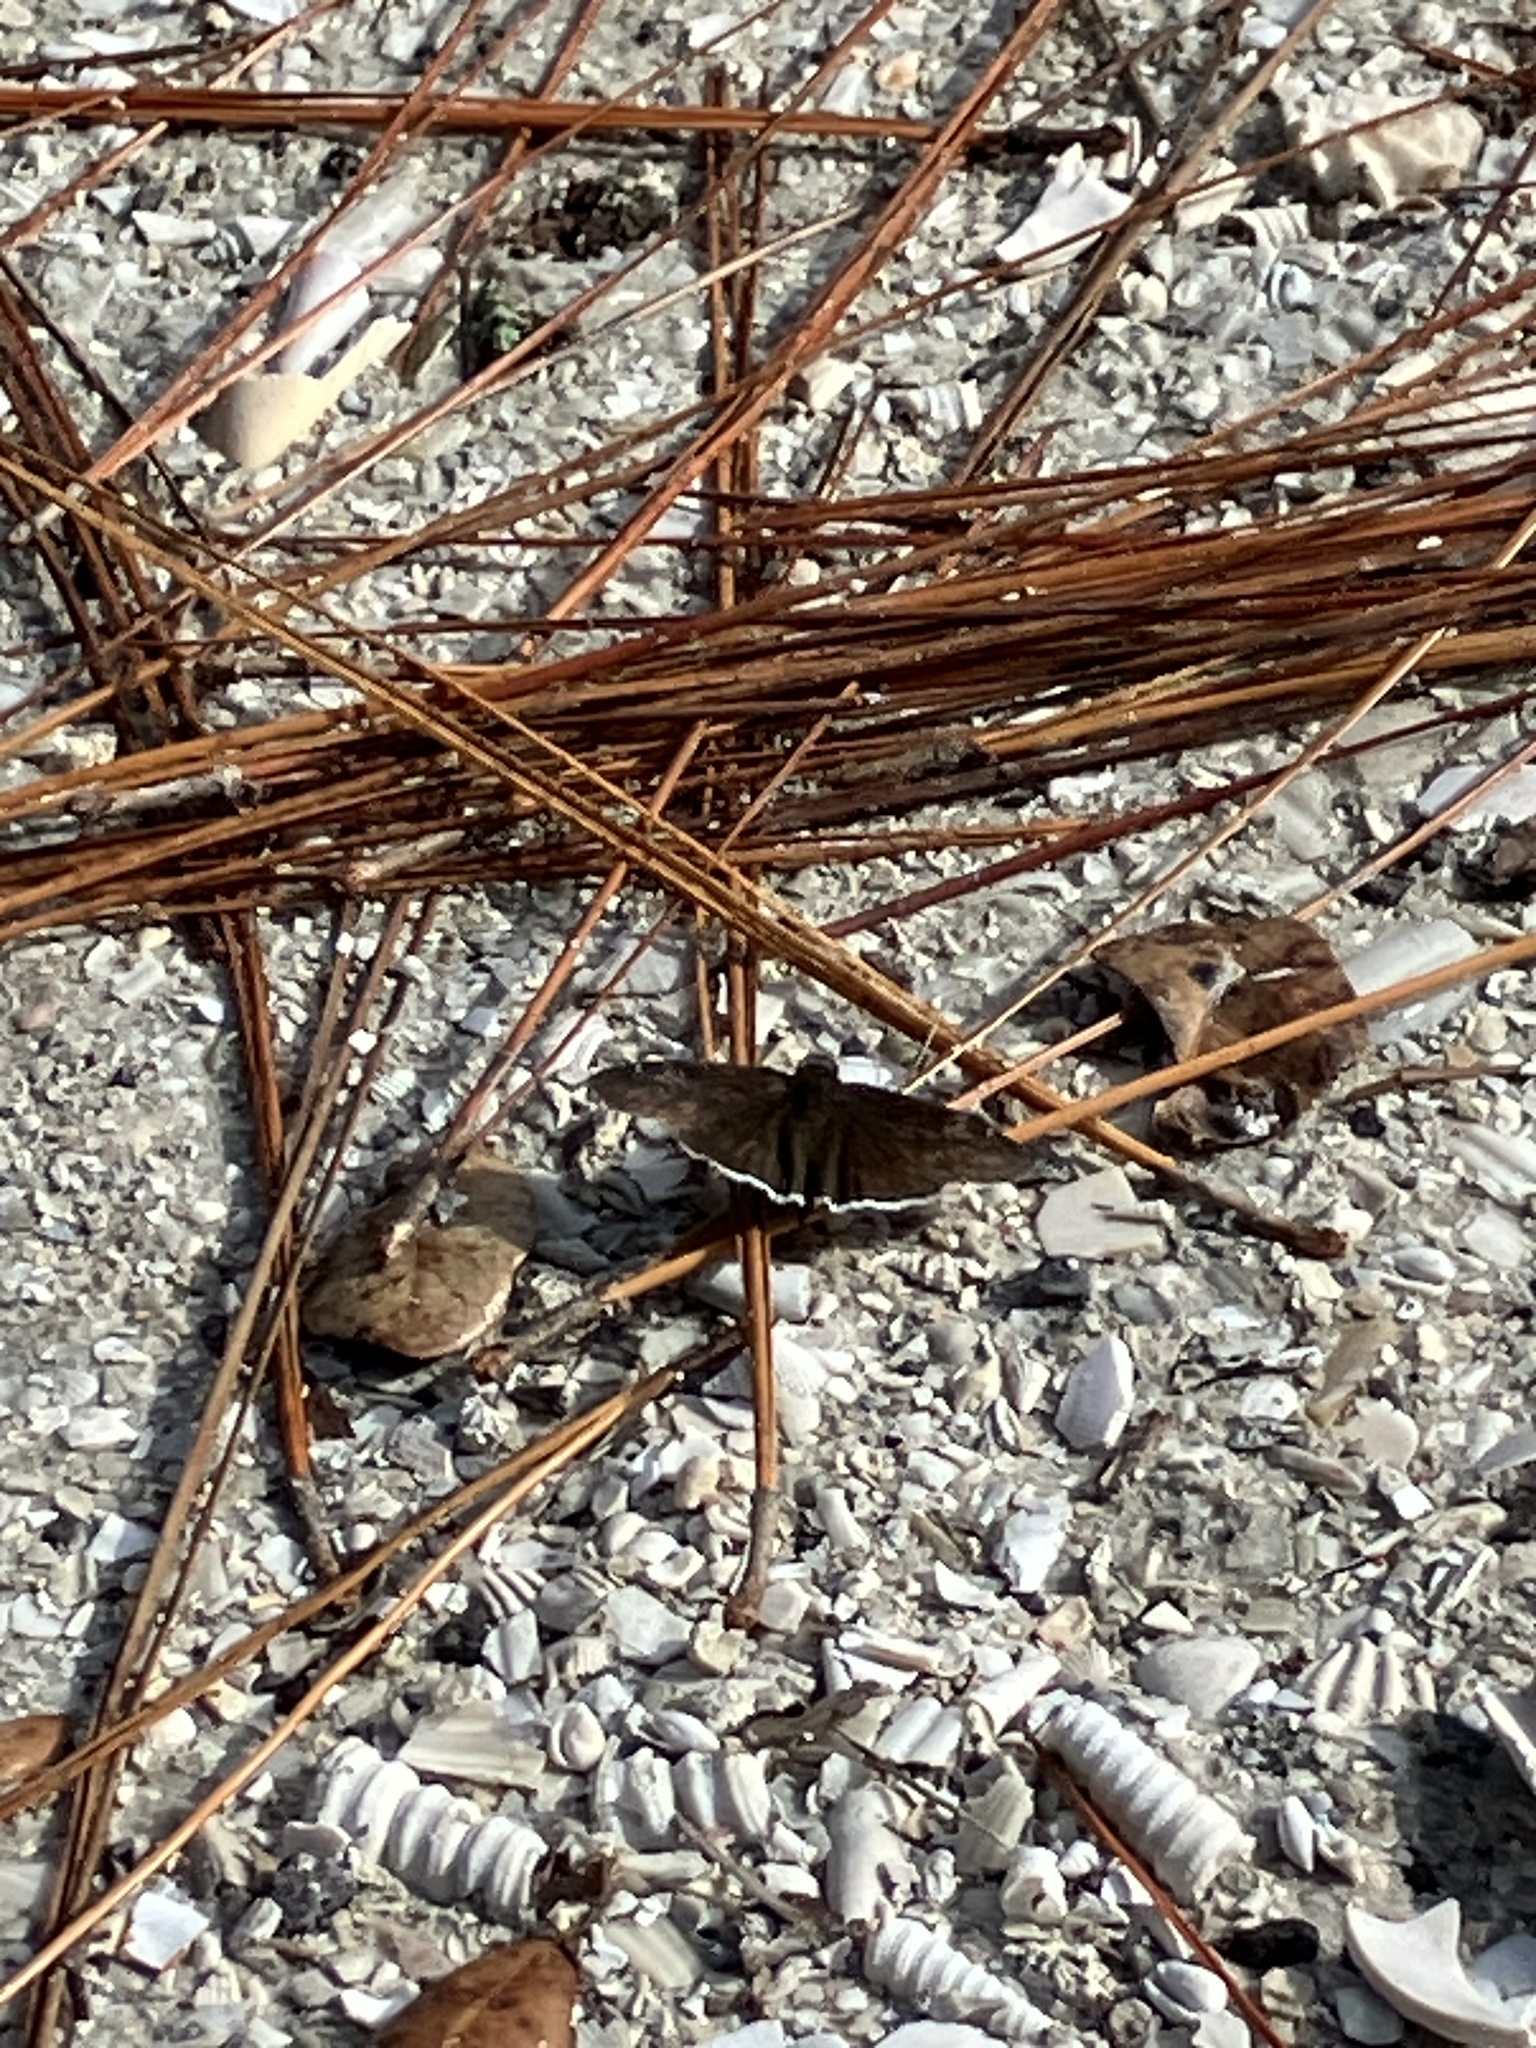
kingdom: Animalia
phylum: Arthropoda
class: Insecta
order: Lepidoptera
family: Hesperiidae
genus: Erynnis
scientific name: Erynnis funeralis
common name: Funereal duskywing
